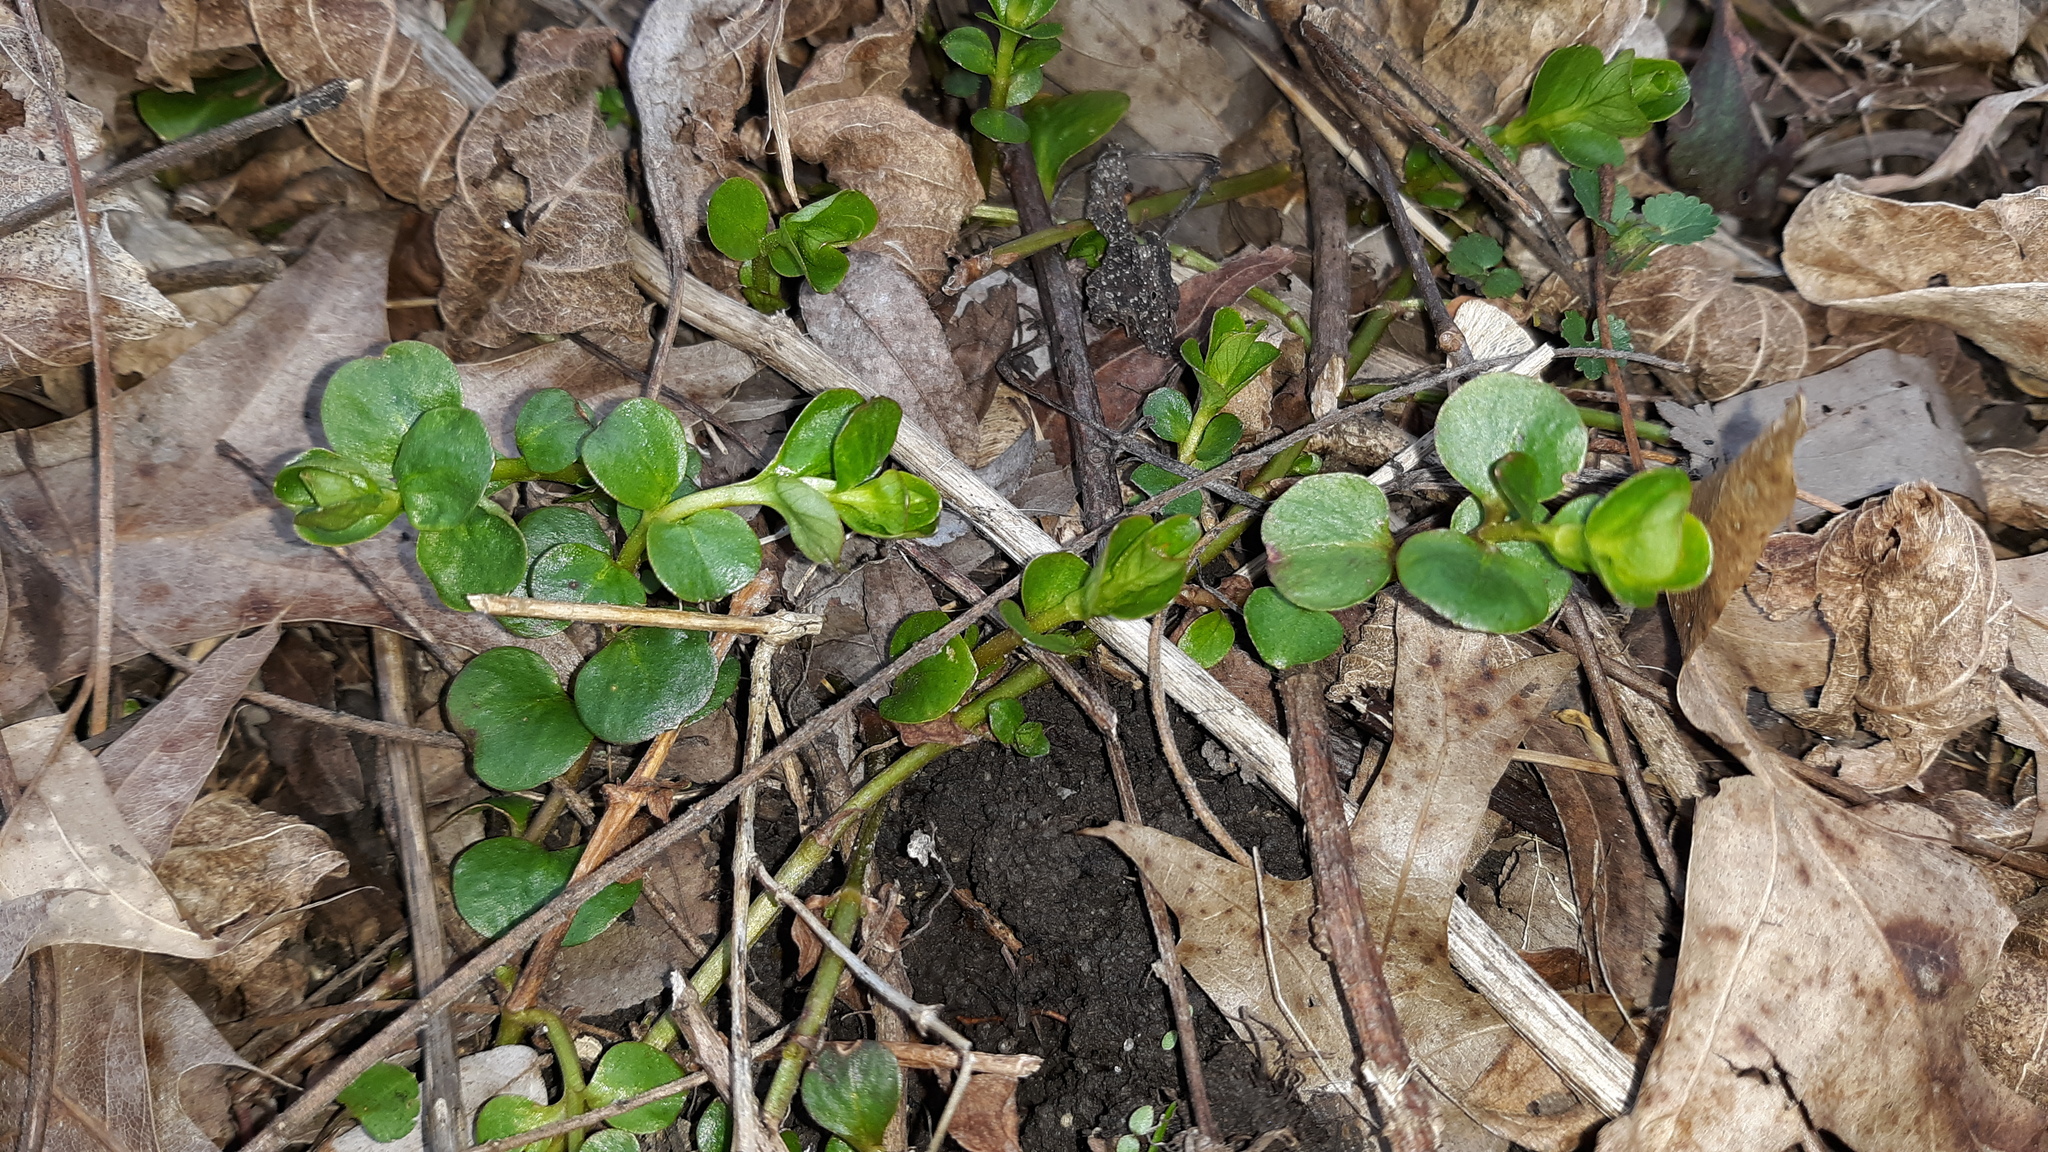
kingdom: Plantae
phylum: Tracheophyta
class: Magnoliopsida
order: Ericales
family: Primulaceae
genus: Lysimachia
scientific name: Lysimachia nummularia
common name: Moneywort
